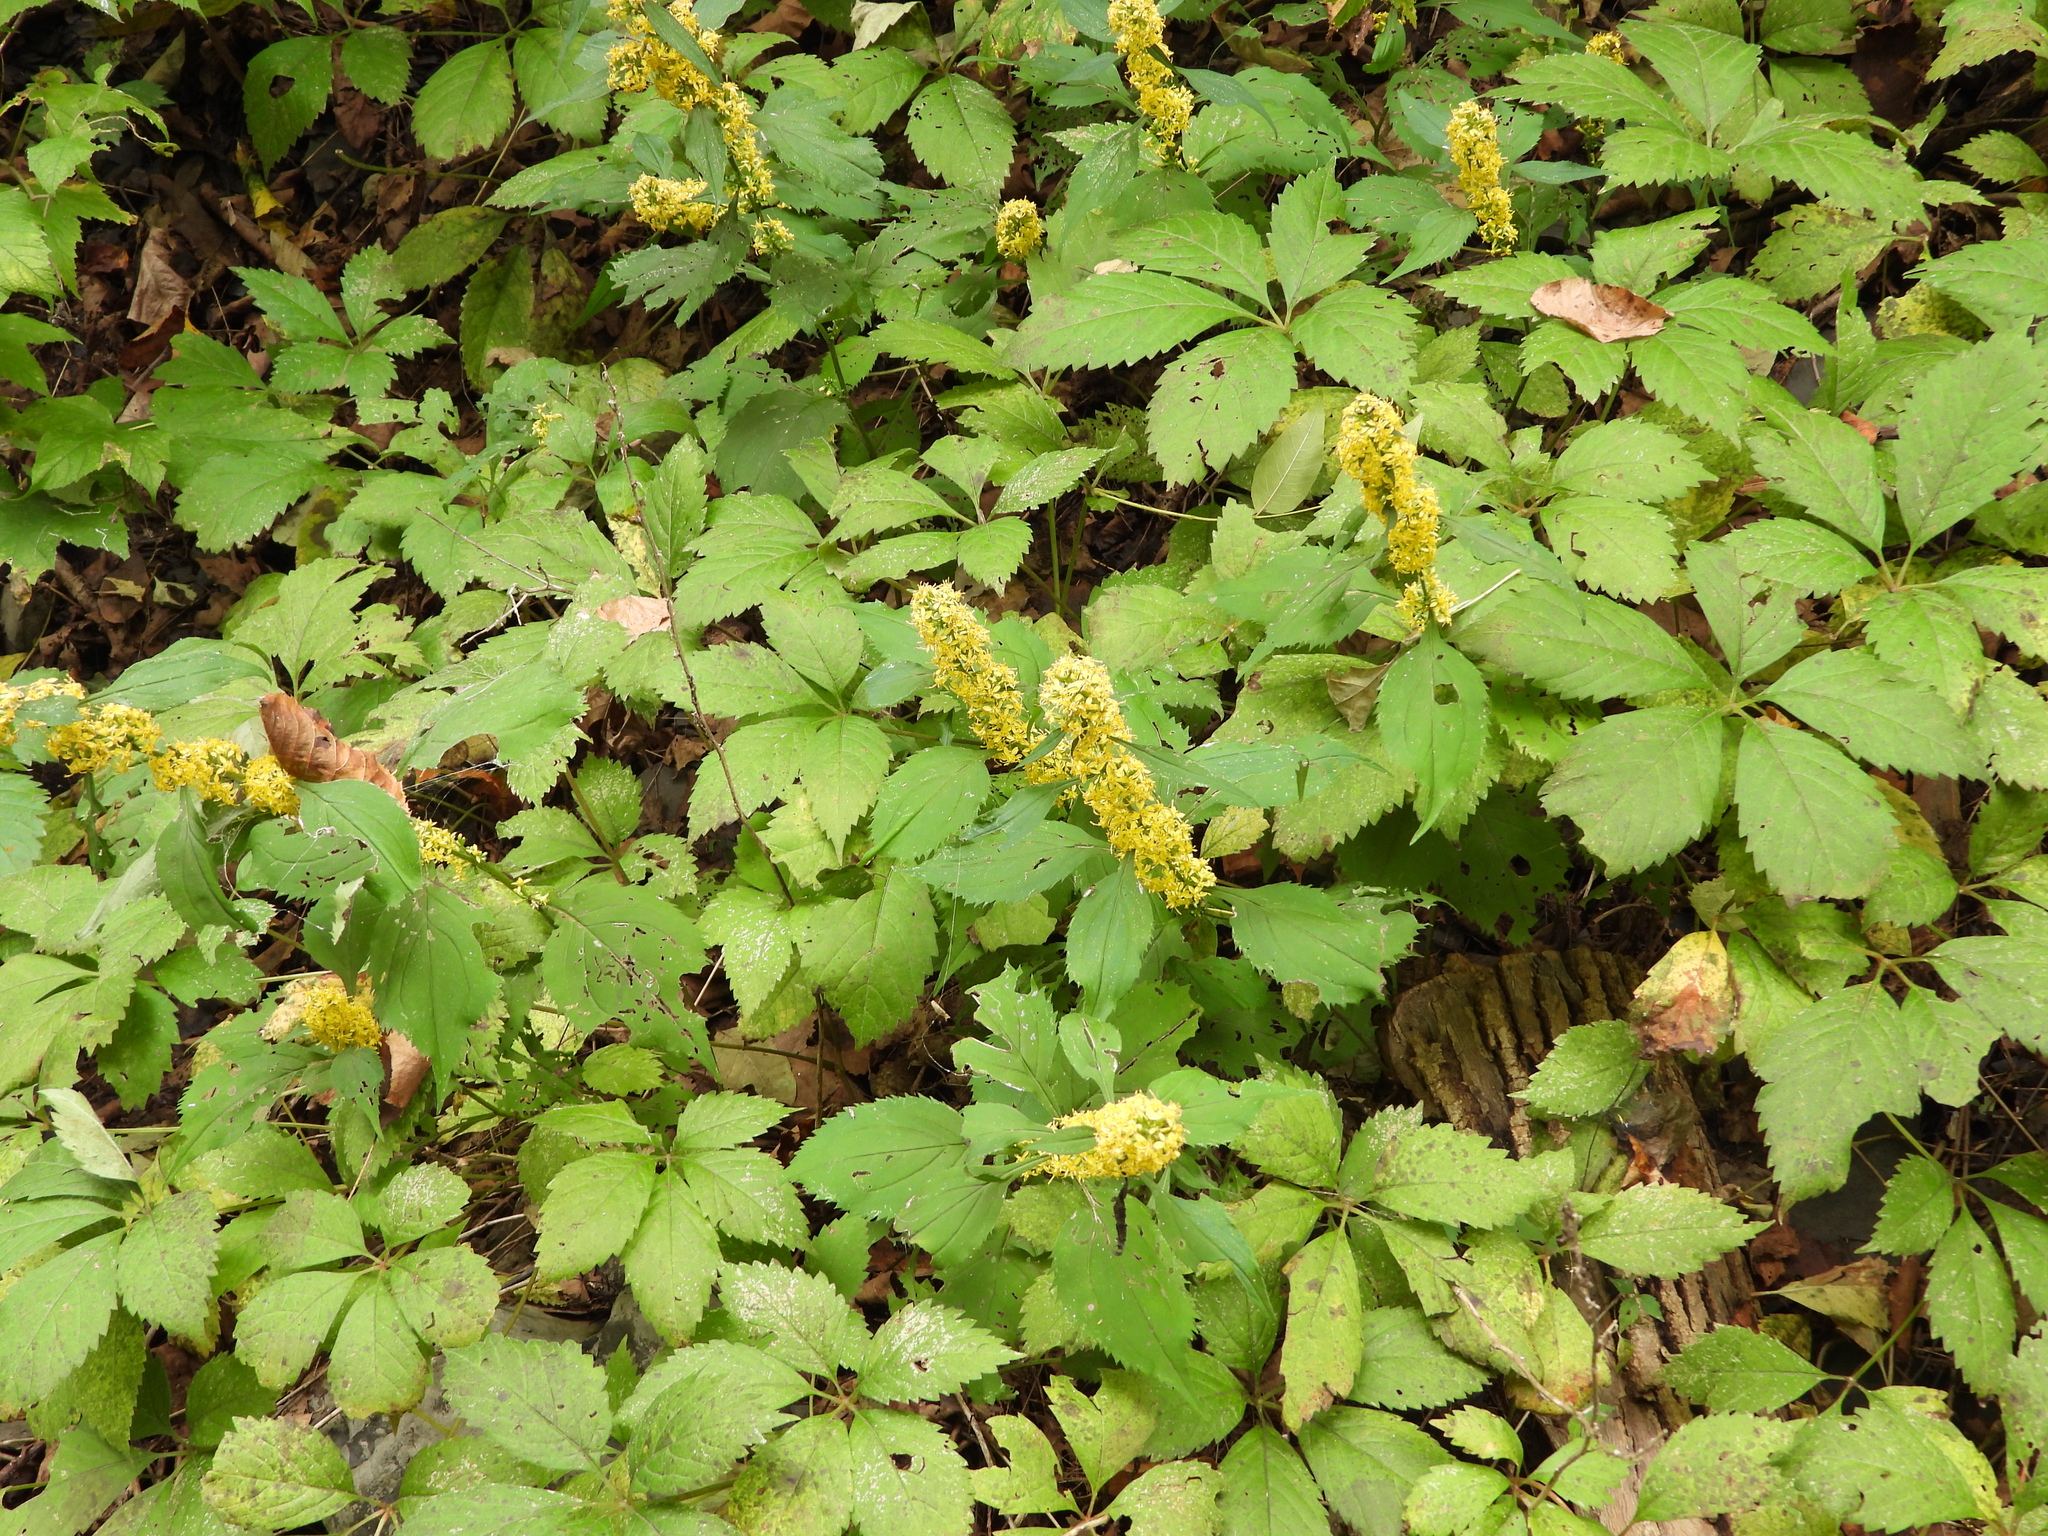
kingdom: Plantae
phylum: Tracheophyta
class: Magnoliopsida
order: Asterales
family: Asteraceae
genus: Solidago
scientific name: Solidago flexicaulis
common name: Zig-zag goldenrod
